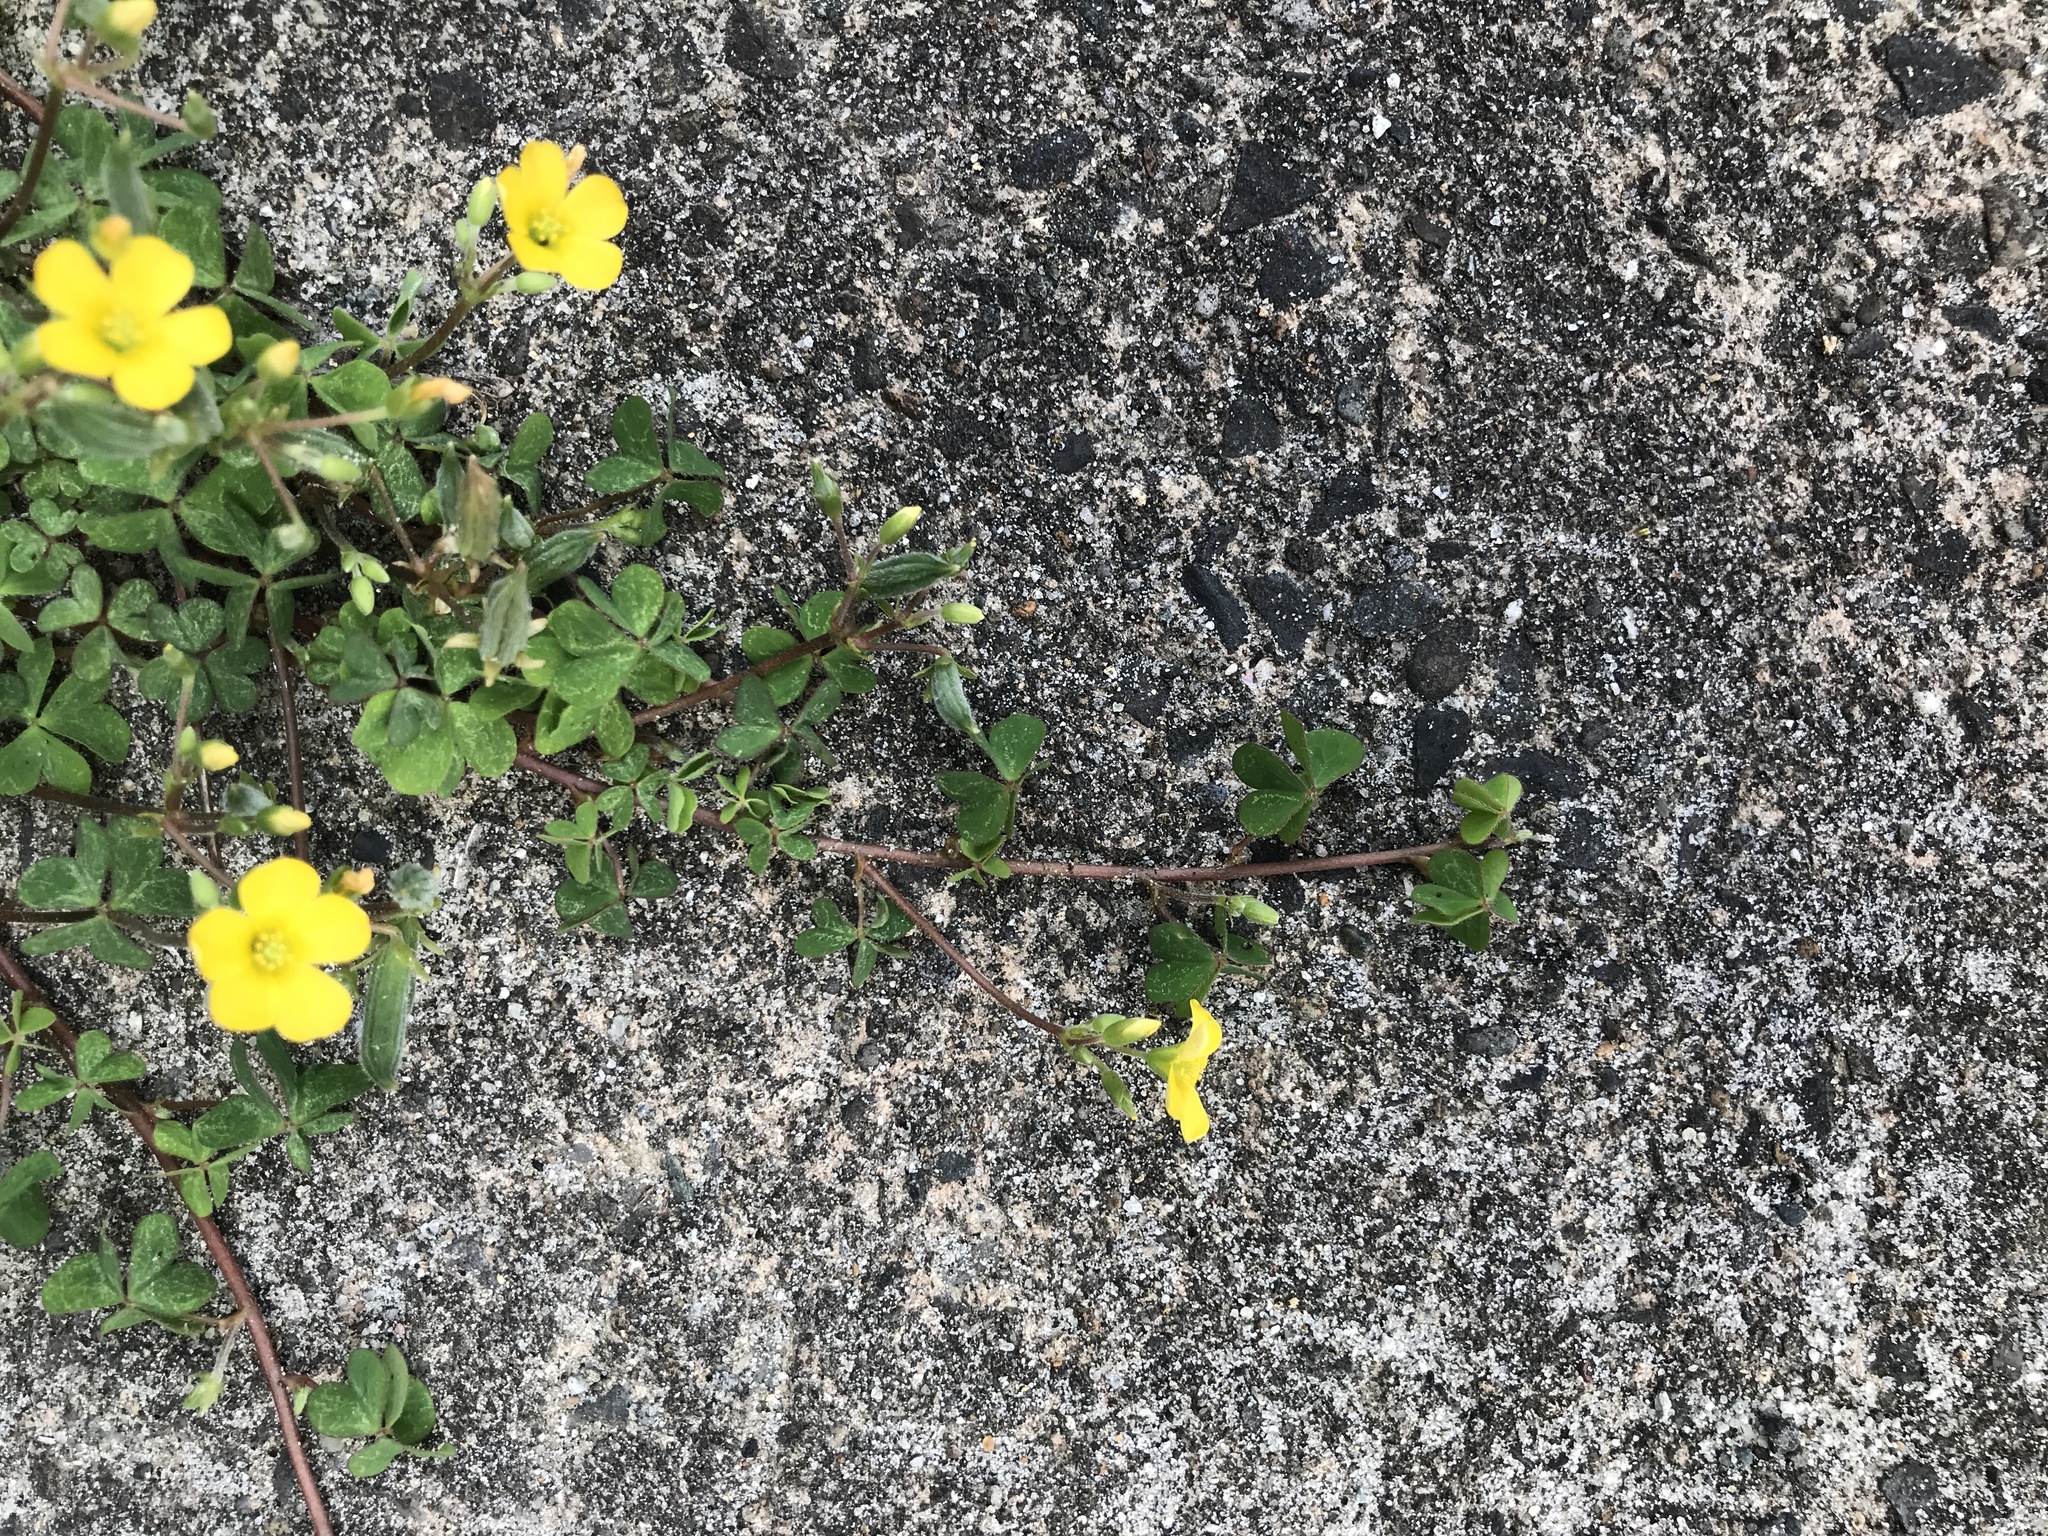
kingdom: Plantae
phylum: Tracheophyta
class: Magnoliopsida
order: Oxalidales
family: Oxalidaceae
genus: Oxalis
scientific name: Oxalis corniculata
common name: Procumbent yellow-sorrel
